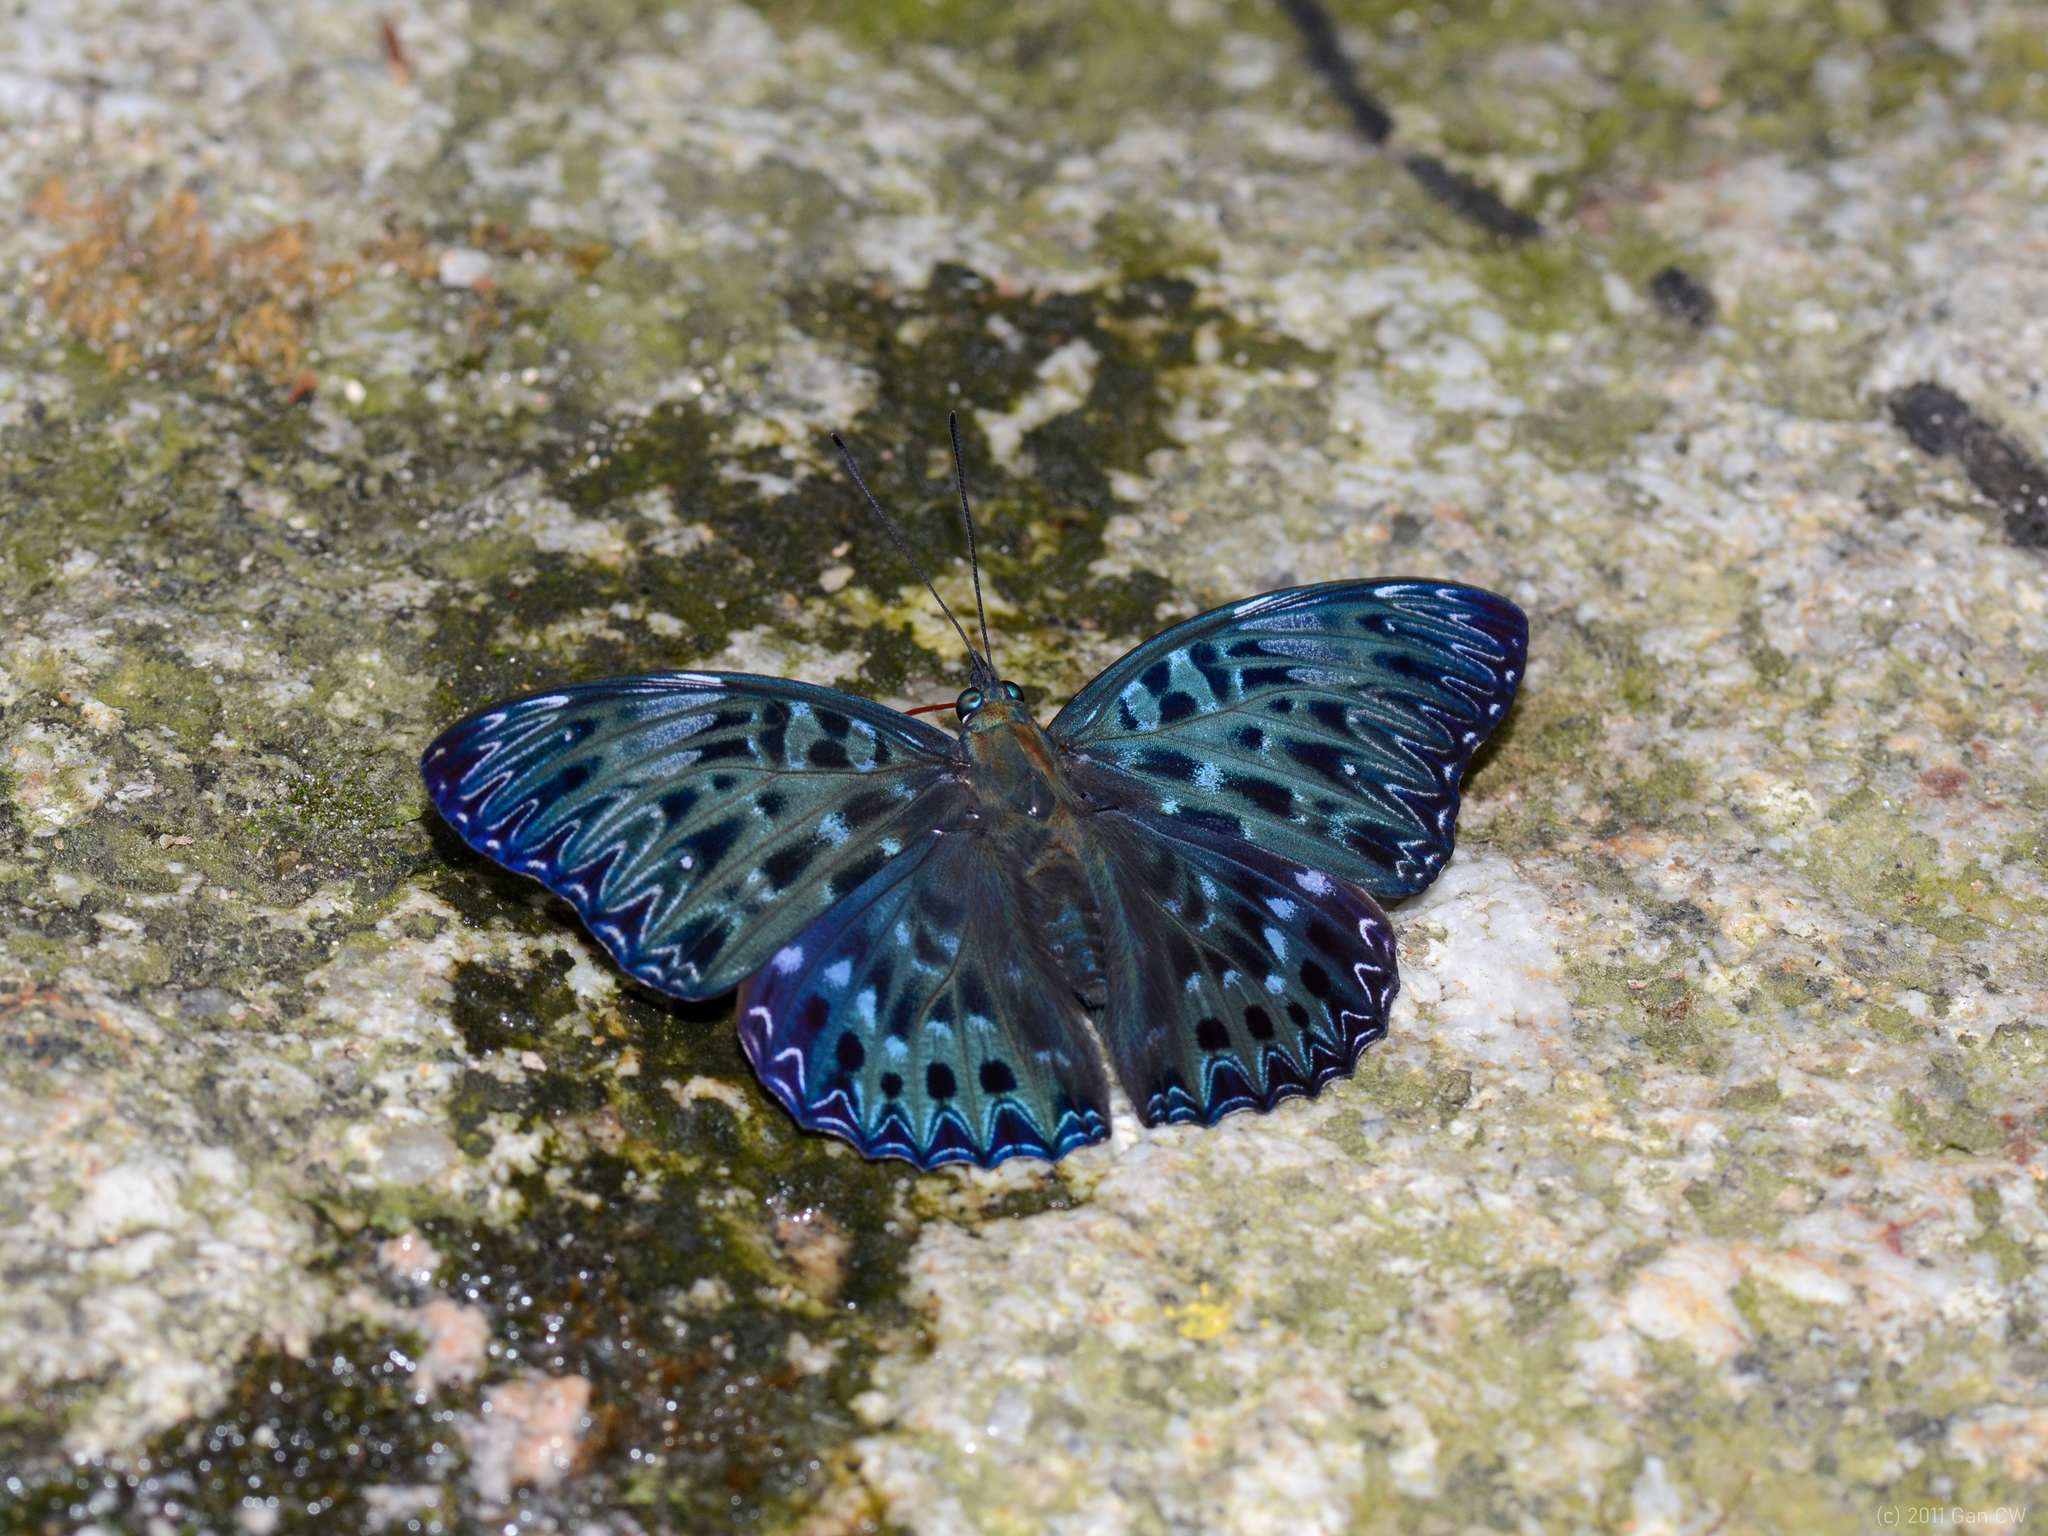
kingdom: Animalia
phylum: Arthropoda
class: Insecta
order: Lepidoptera
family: Nymphalidae
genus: Dichorragia
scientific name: Dichorragia nesimachus
